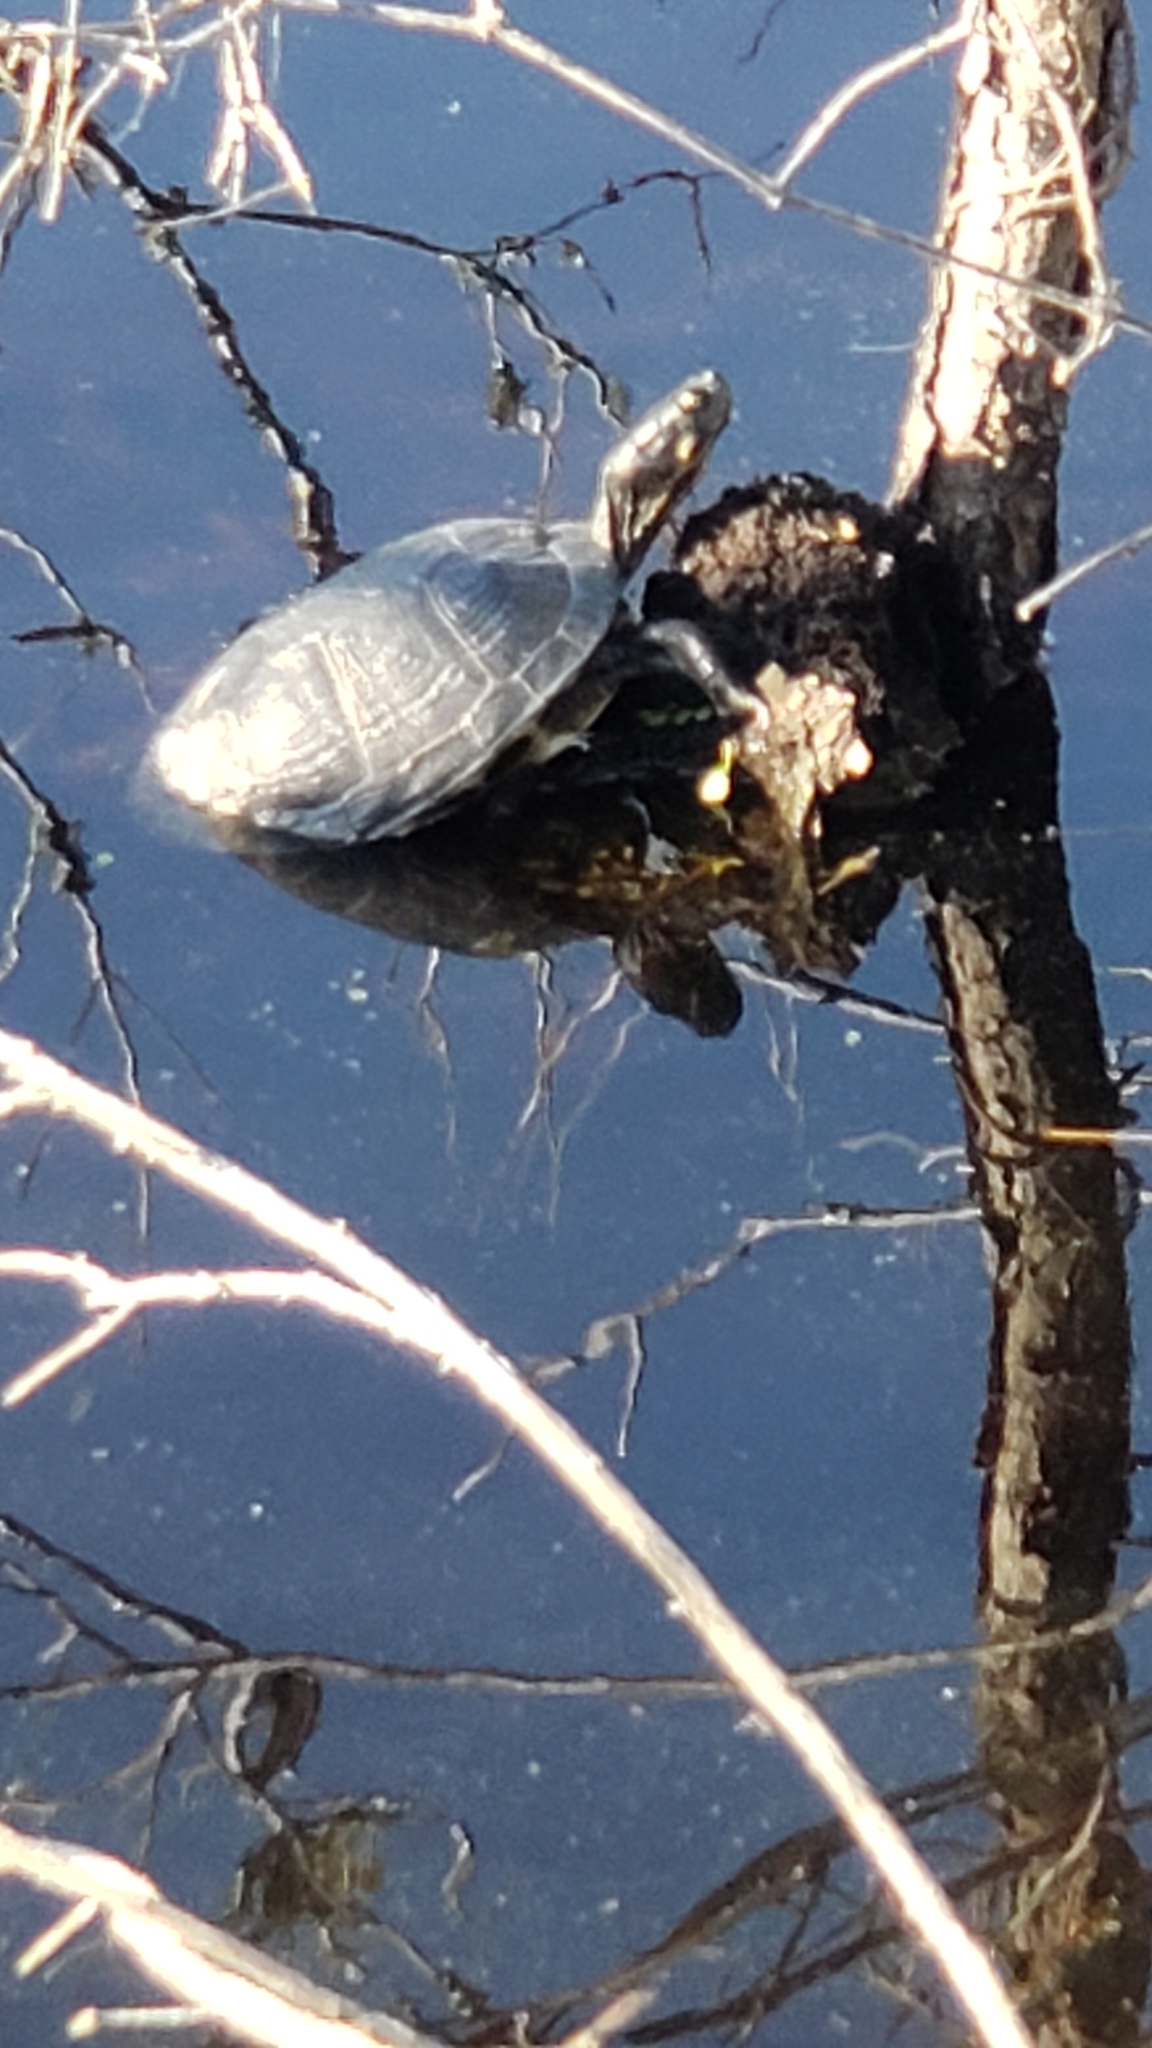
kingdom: Animalia
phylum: Chordata
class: Testudines
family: Emydidae
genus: Trachemys
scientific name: Trachemys scripta
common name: Slider
